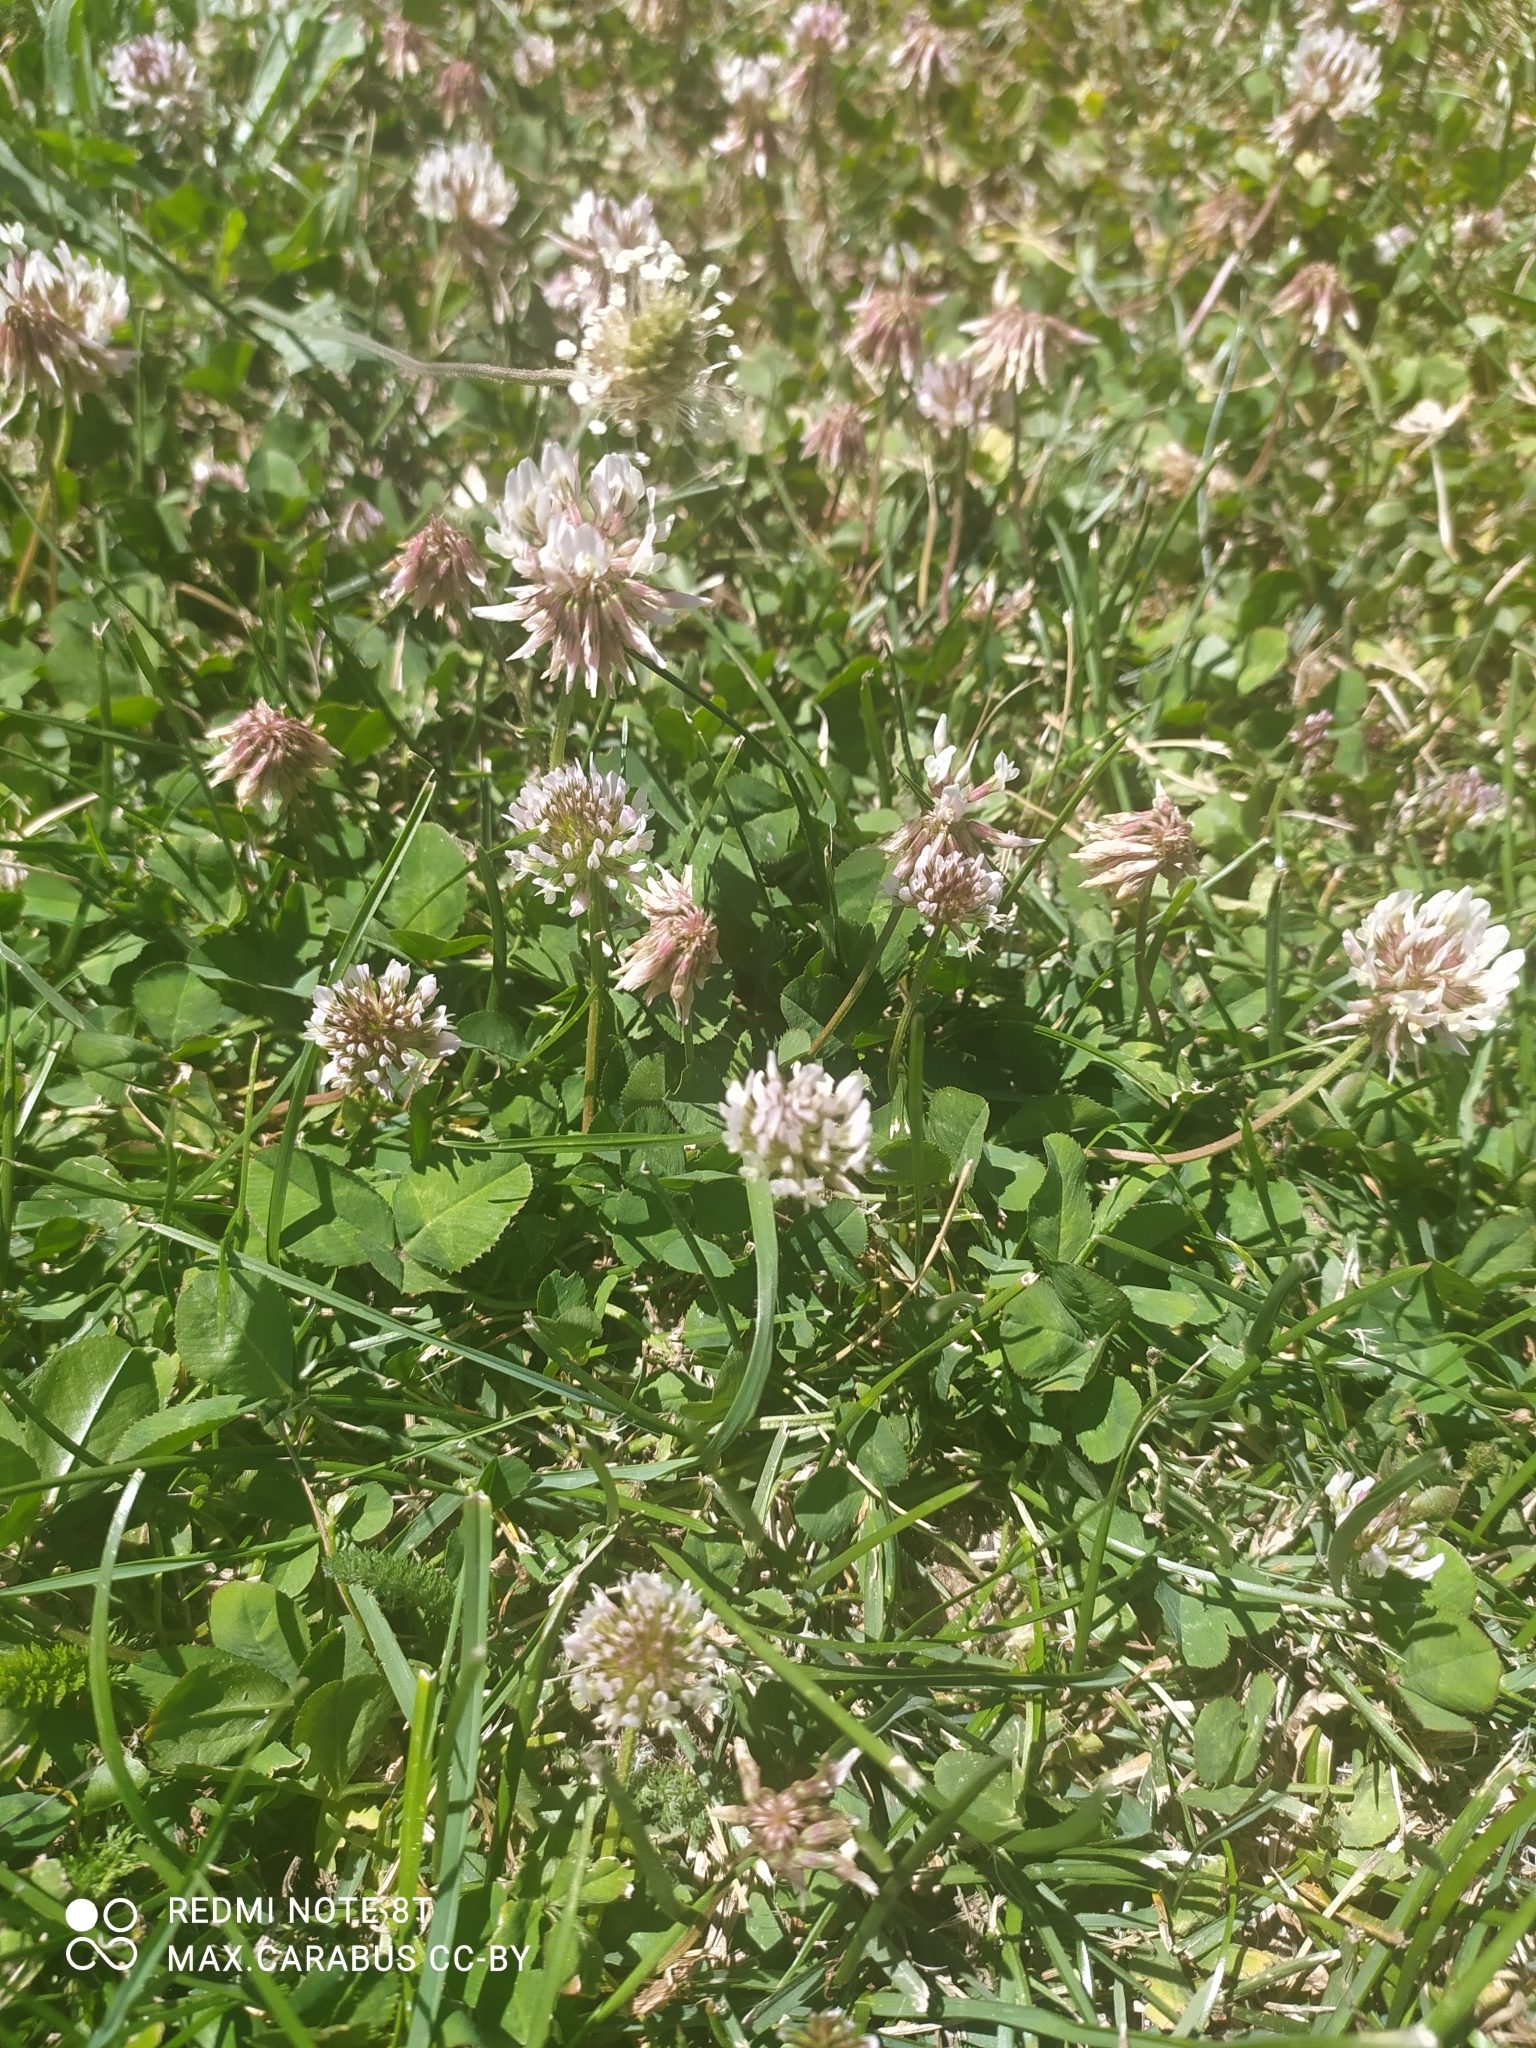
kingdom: Plantae
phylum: Tracheophyta
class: Magnoliopsida
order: Fabales
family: Fabaceae
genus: Trifolium
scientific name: Trifolium repens
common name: White clover
